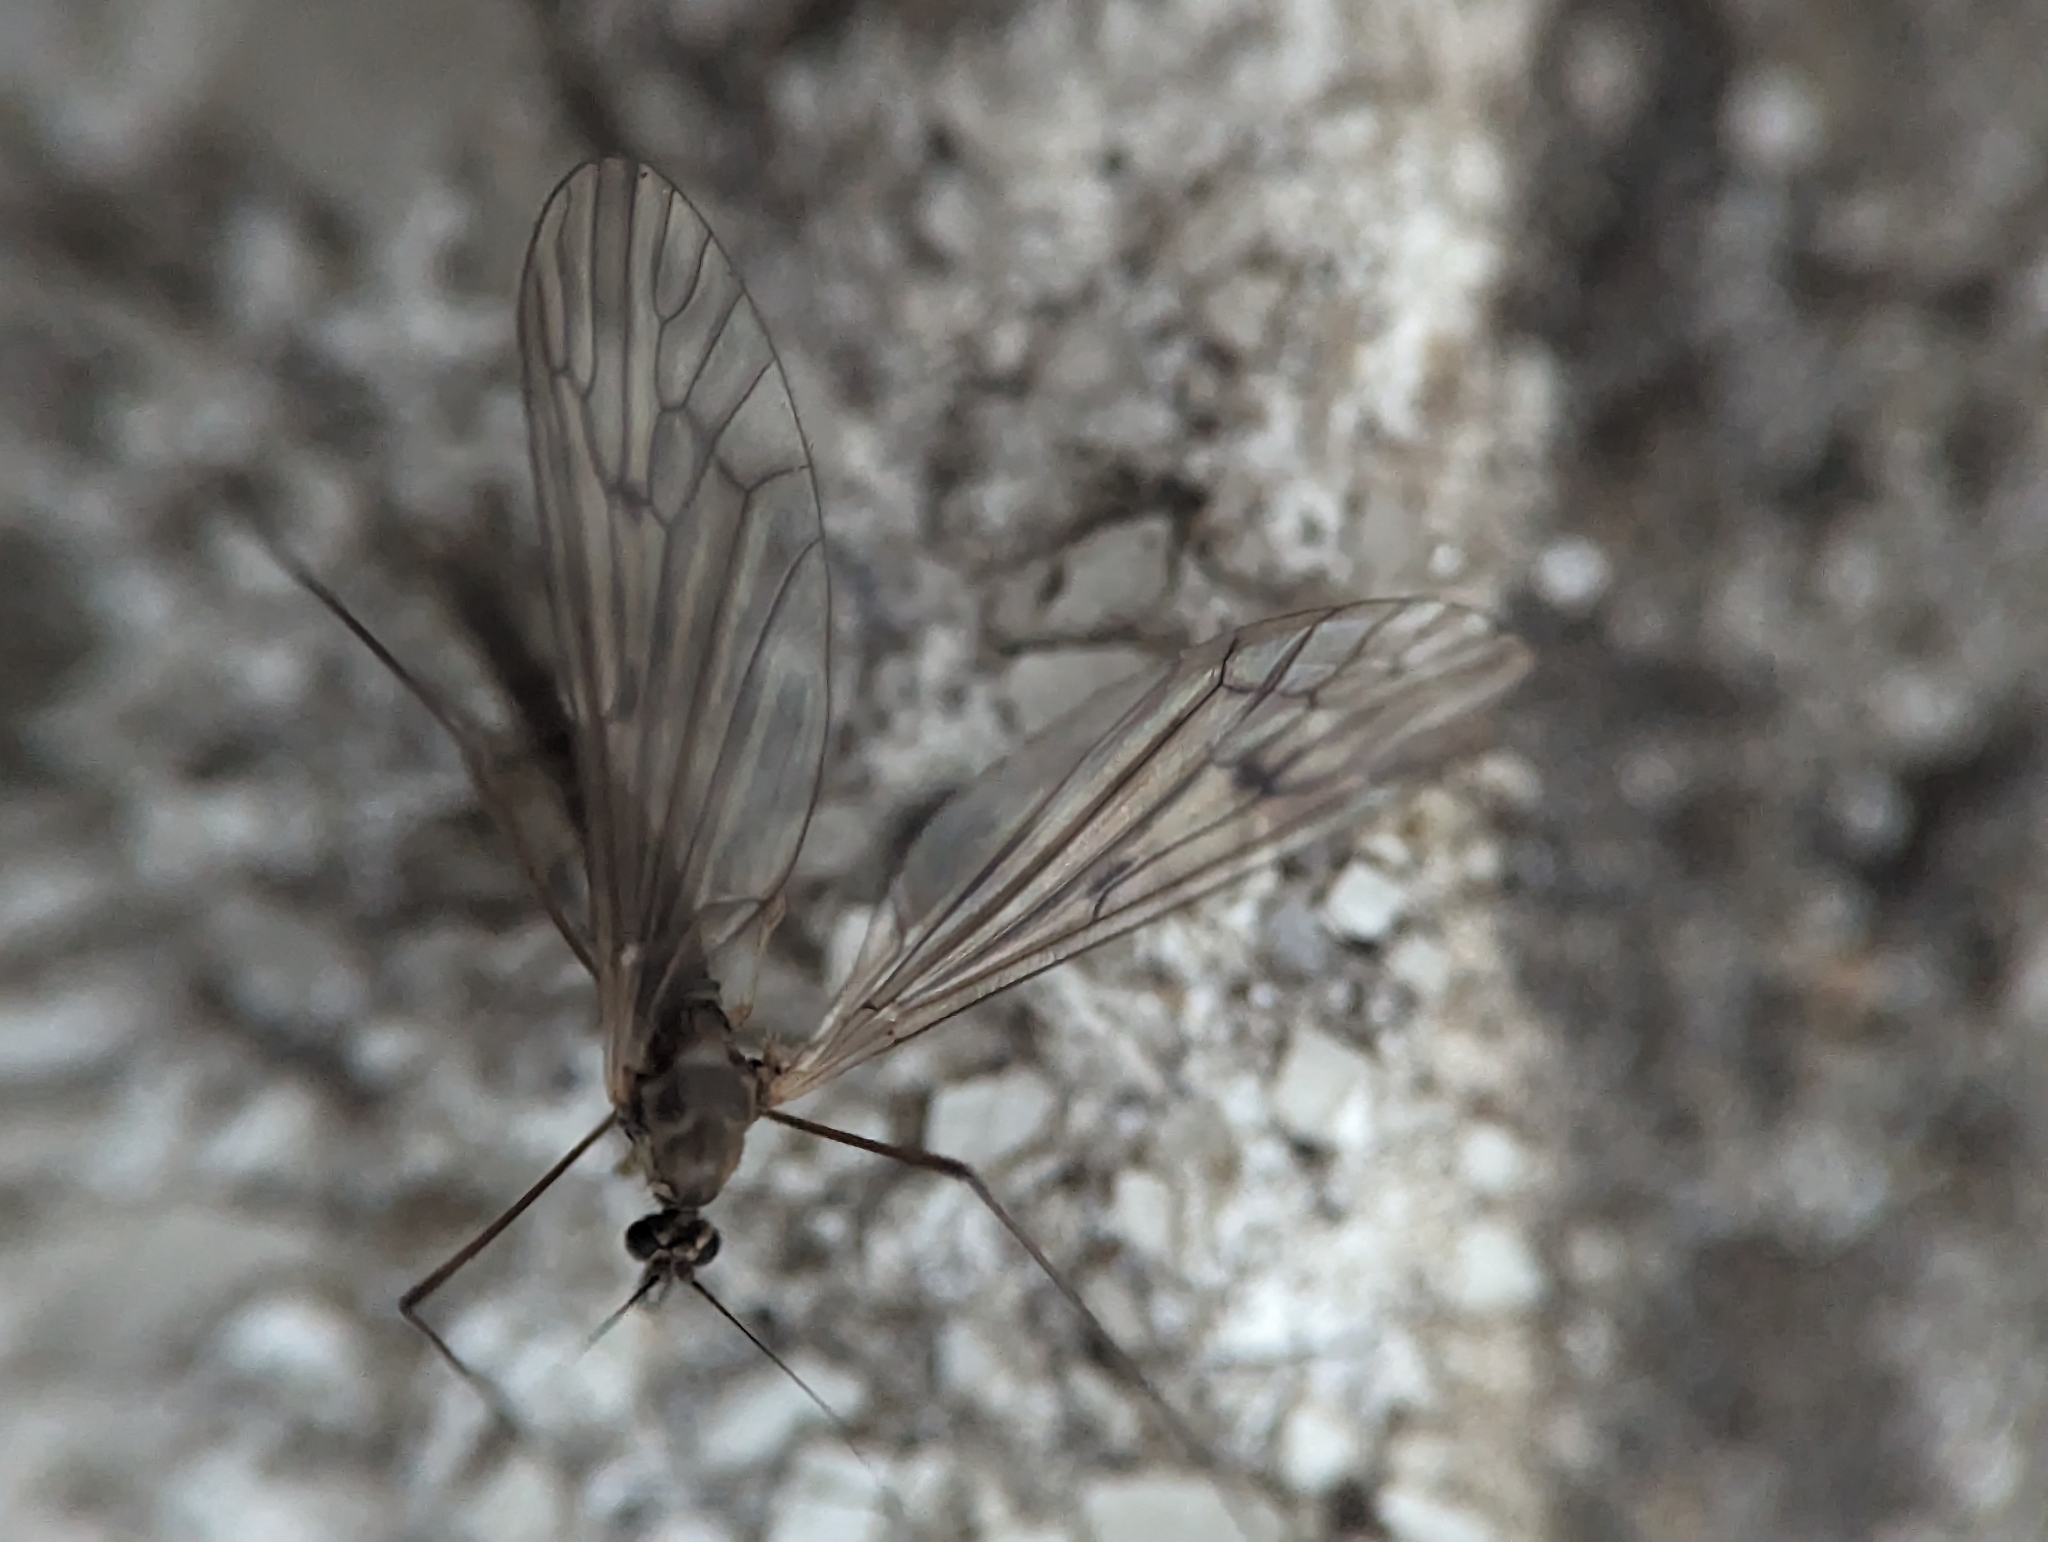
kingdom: Animalia
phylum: Arthropoda
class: Insecta
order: Diptera
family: Trichoceridae
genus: Trichocera
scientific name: Trichocera bimacula
